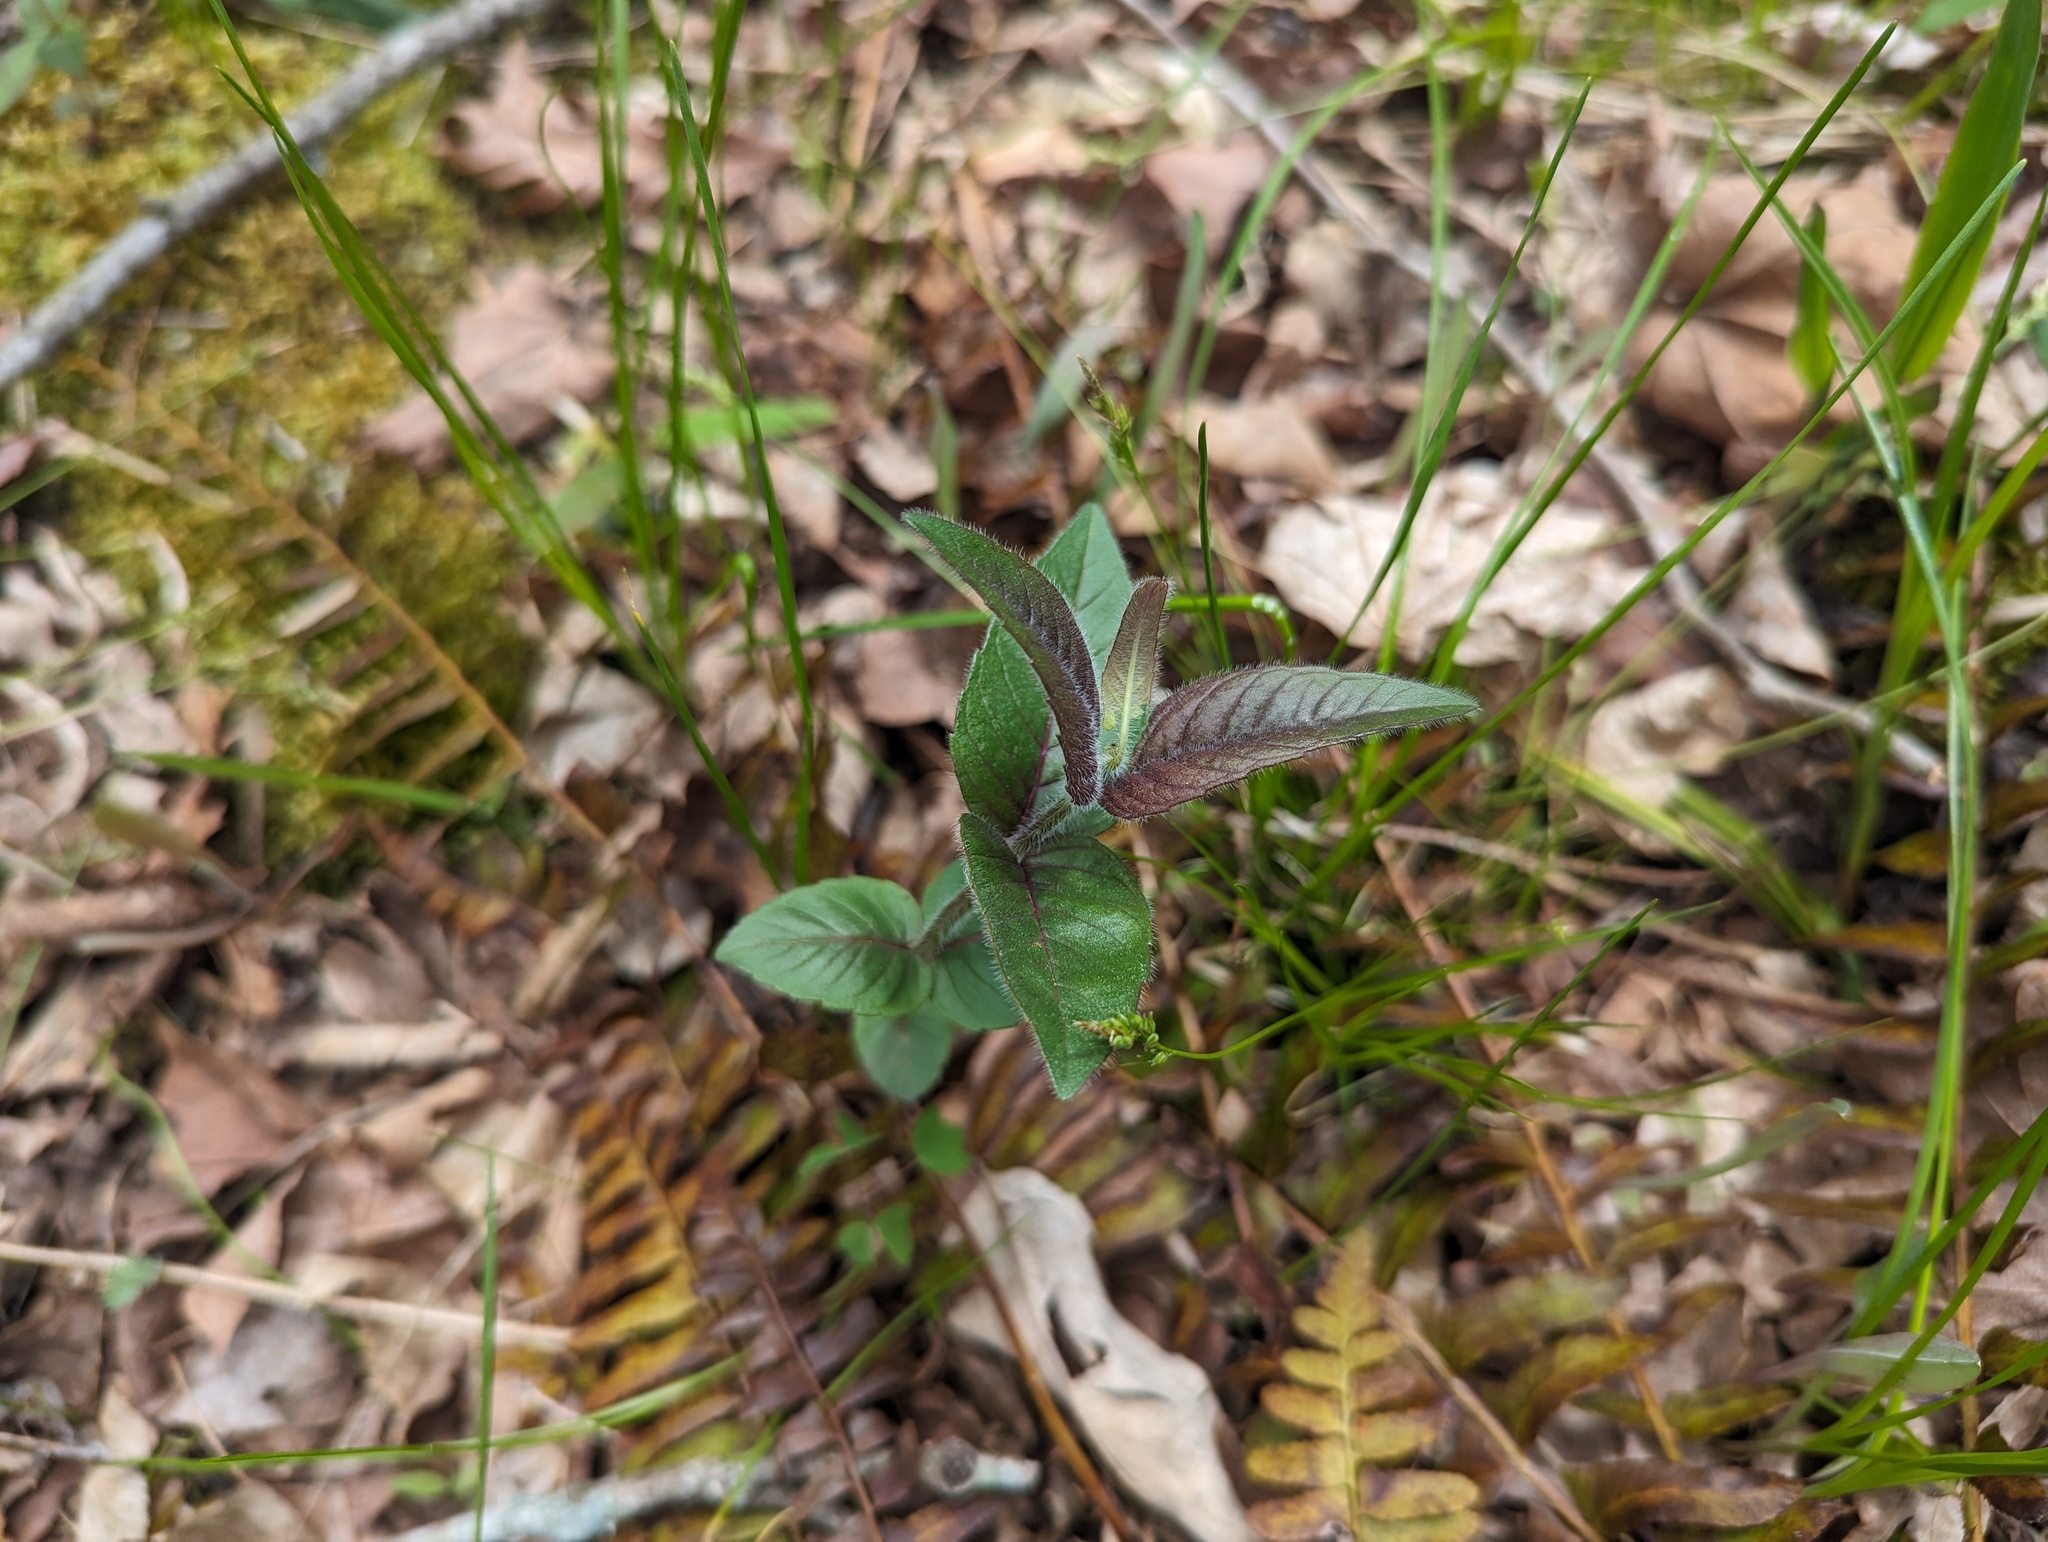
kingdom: Plantae
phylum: Tracheophyta
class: Magnoliopsida
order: Lamiales
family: Lamiaceae
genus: Monarda
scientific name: Monarda bradburiana
